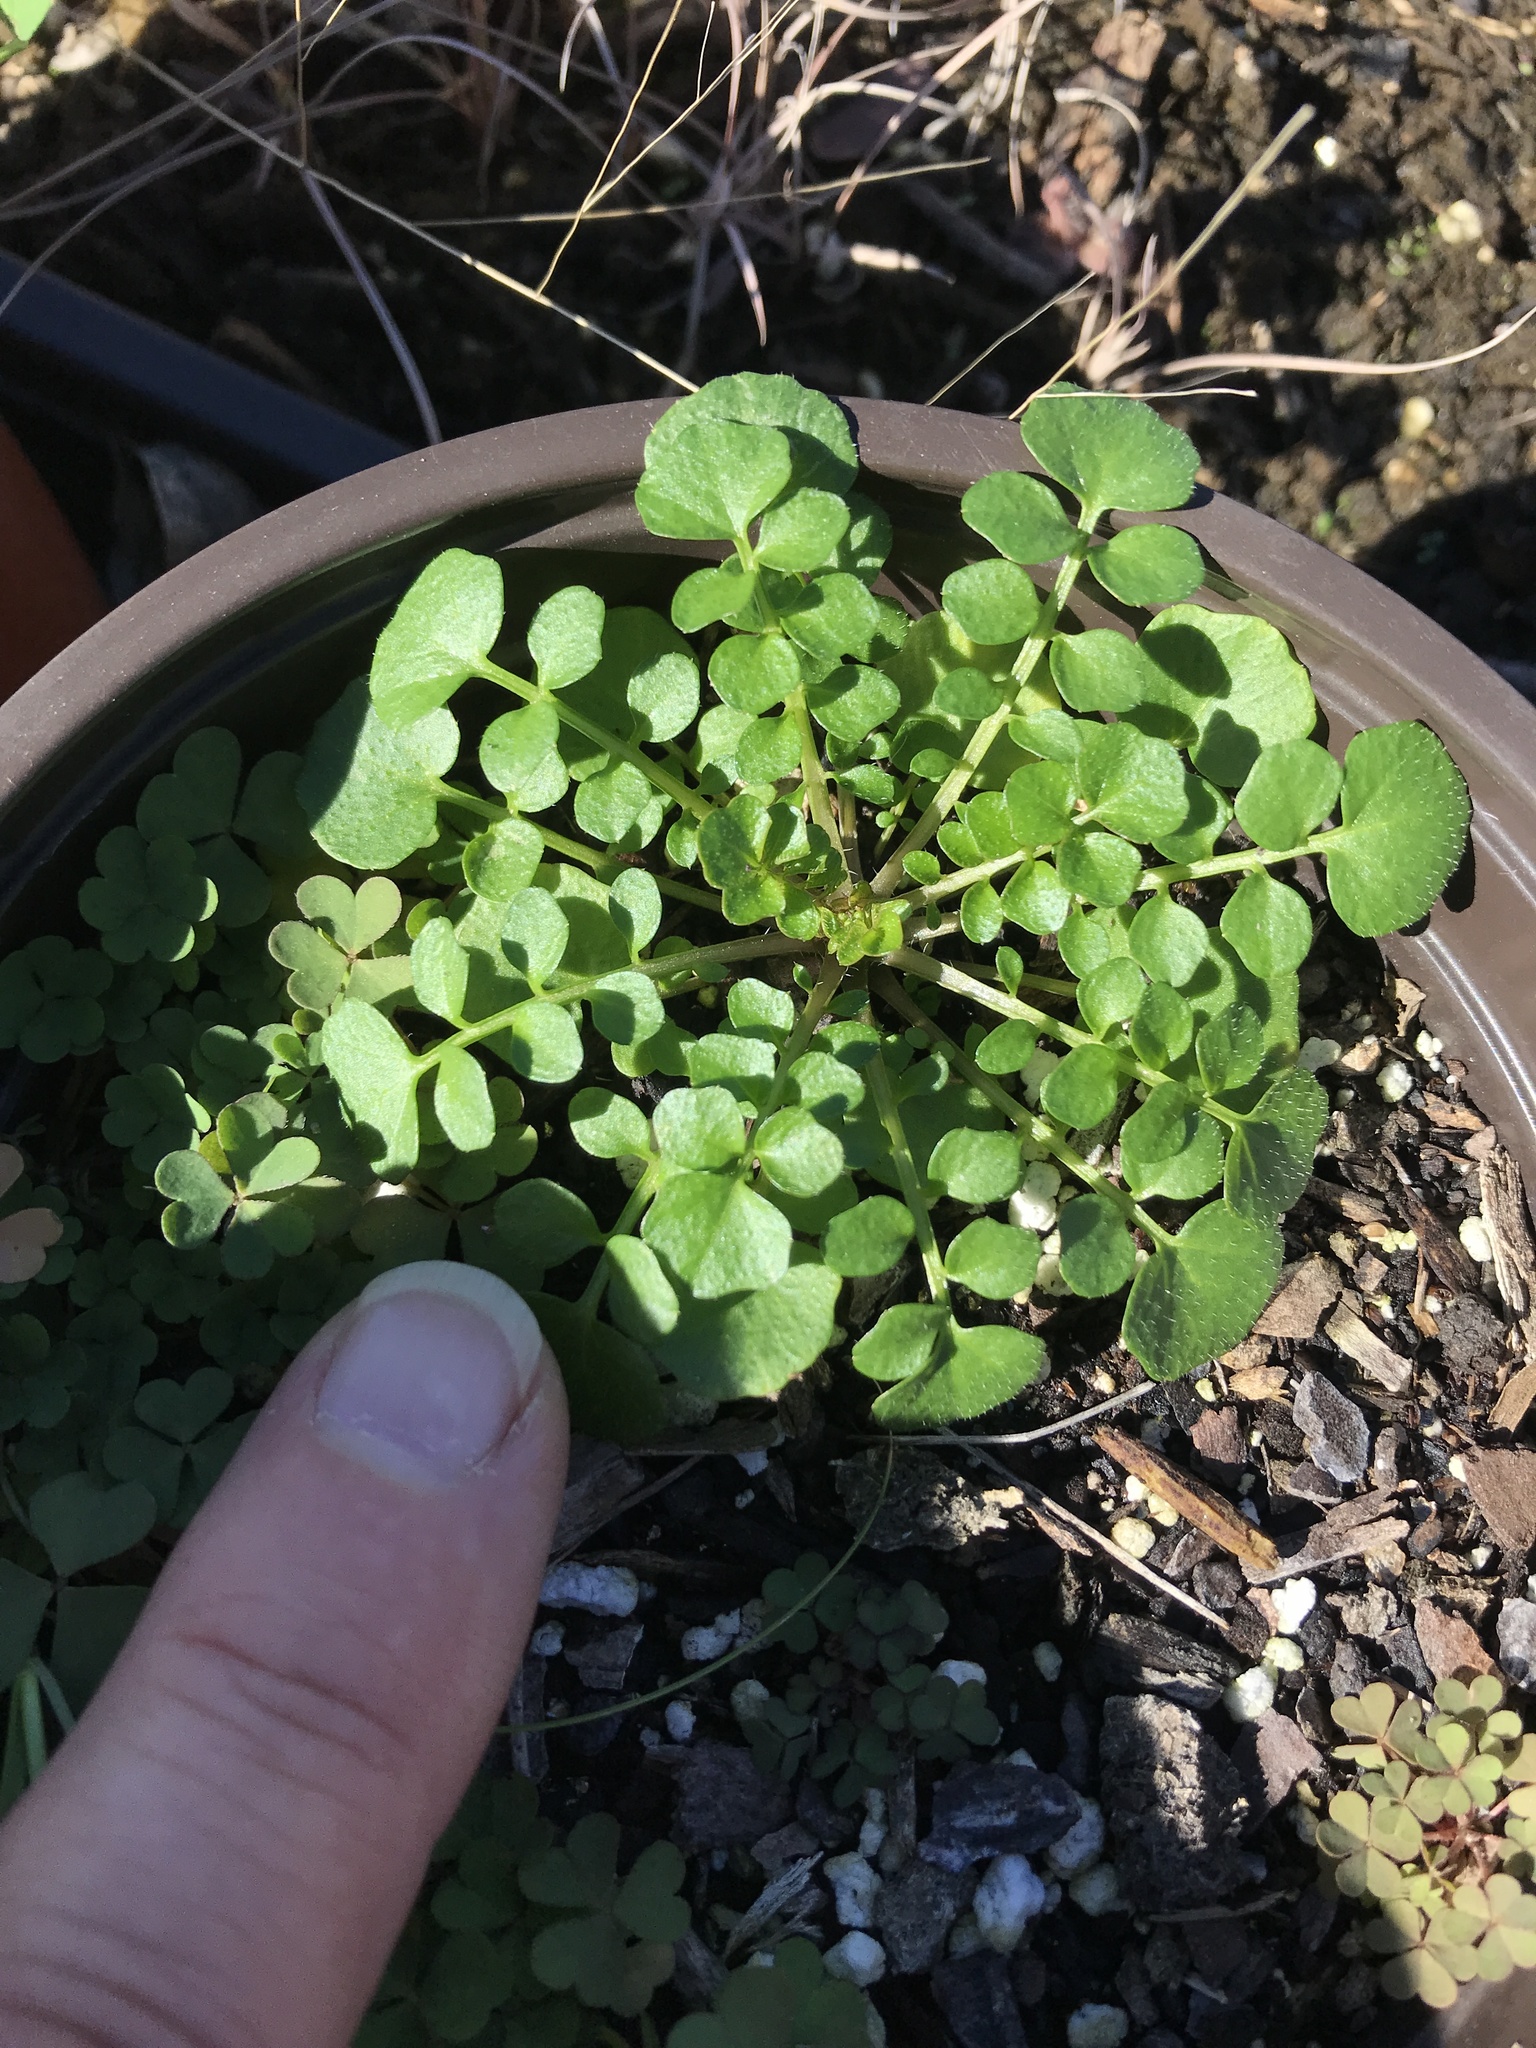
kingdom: Plantae
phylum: Tracheophyta
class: Magnoliopsida
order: Brassicales
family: Brassicaceae
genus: Cardamine
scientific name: Cardamine hirsuta
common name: Hairy bittercress
